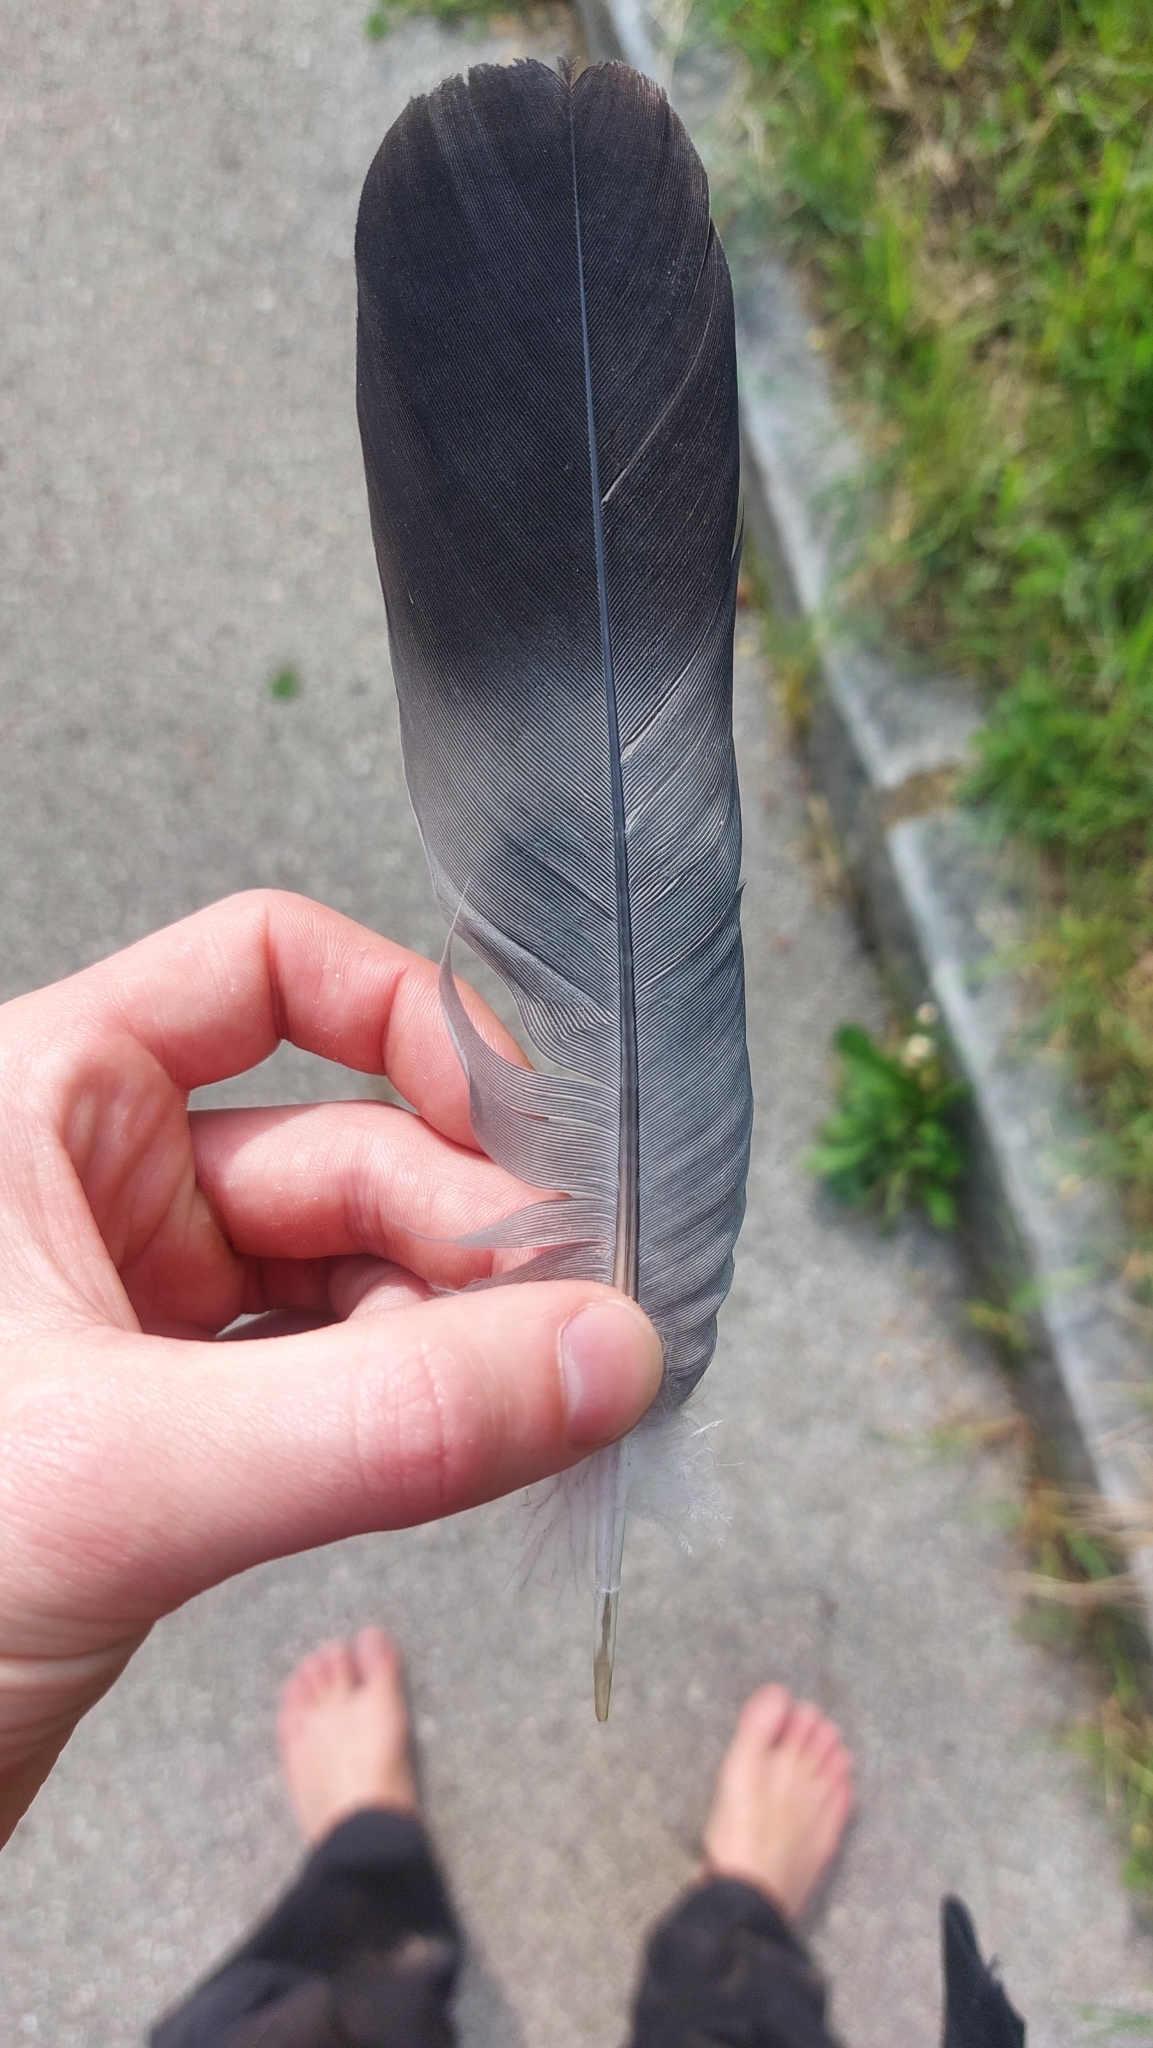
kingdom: Animalia
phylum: Chordata
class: Aves
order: Columbiformes
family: Columbidae
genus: Columba
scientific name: Columba livia
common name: Rock pigeon
